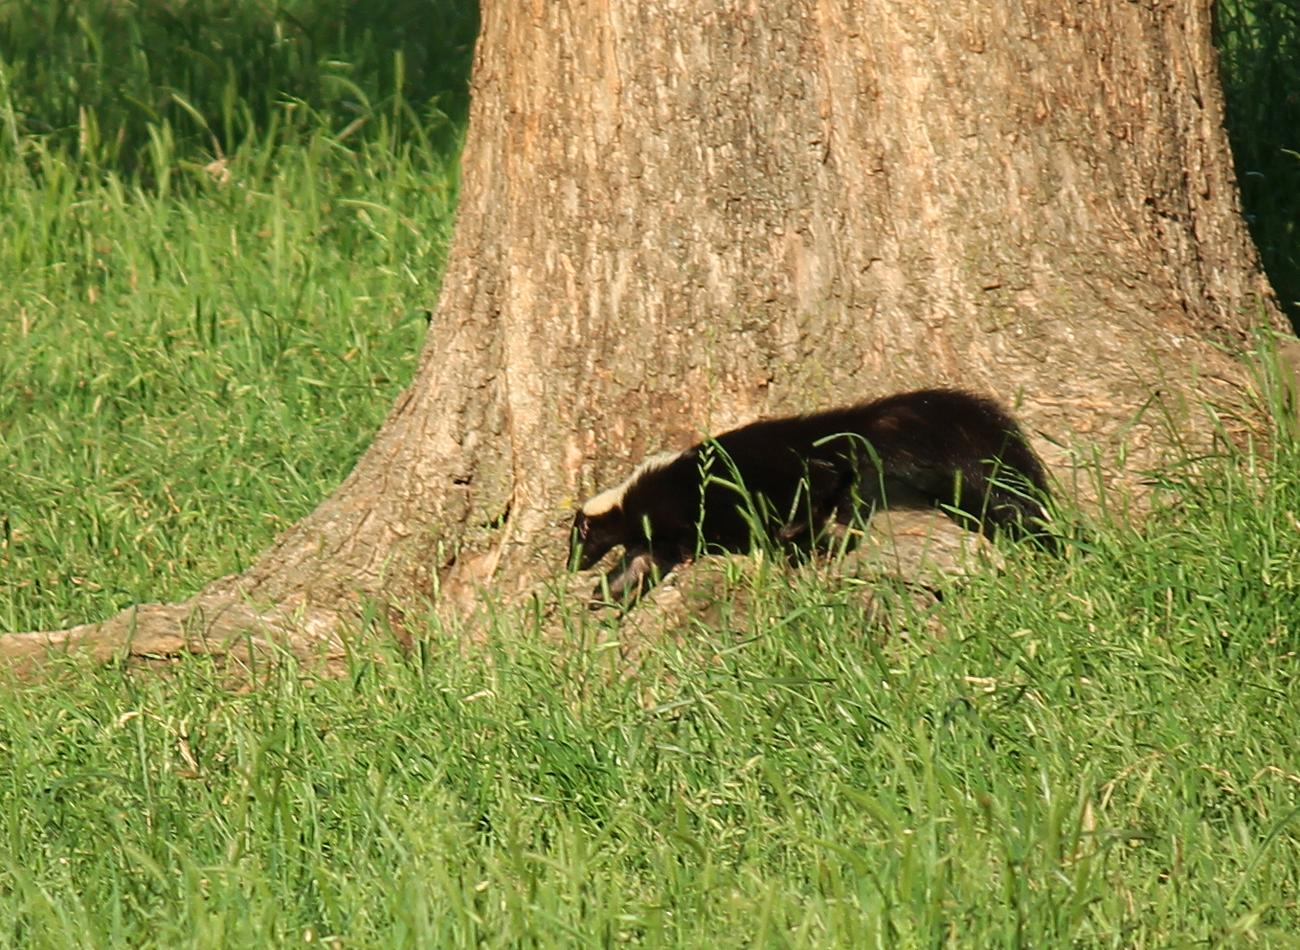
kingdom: Animalia
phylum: Chordata
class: Mammalia
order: Carnivora
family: Mephitidae
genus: Mephitis
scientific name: Mephitis mephitis
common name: Striped skunk
